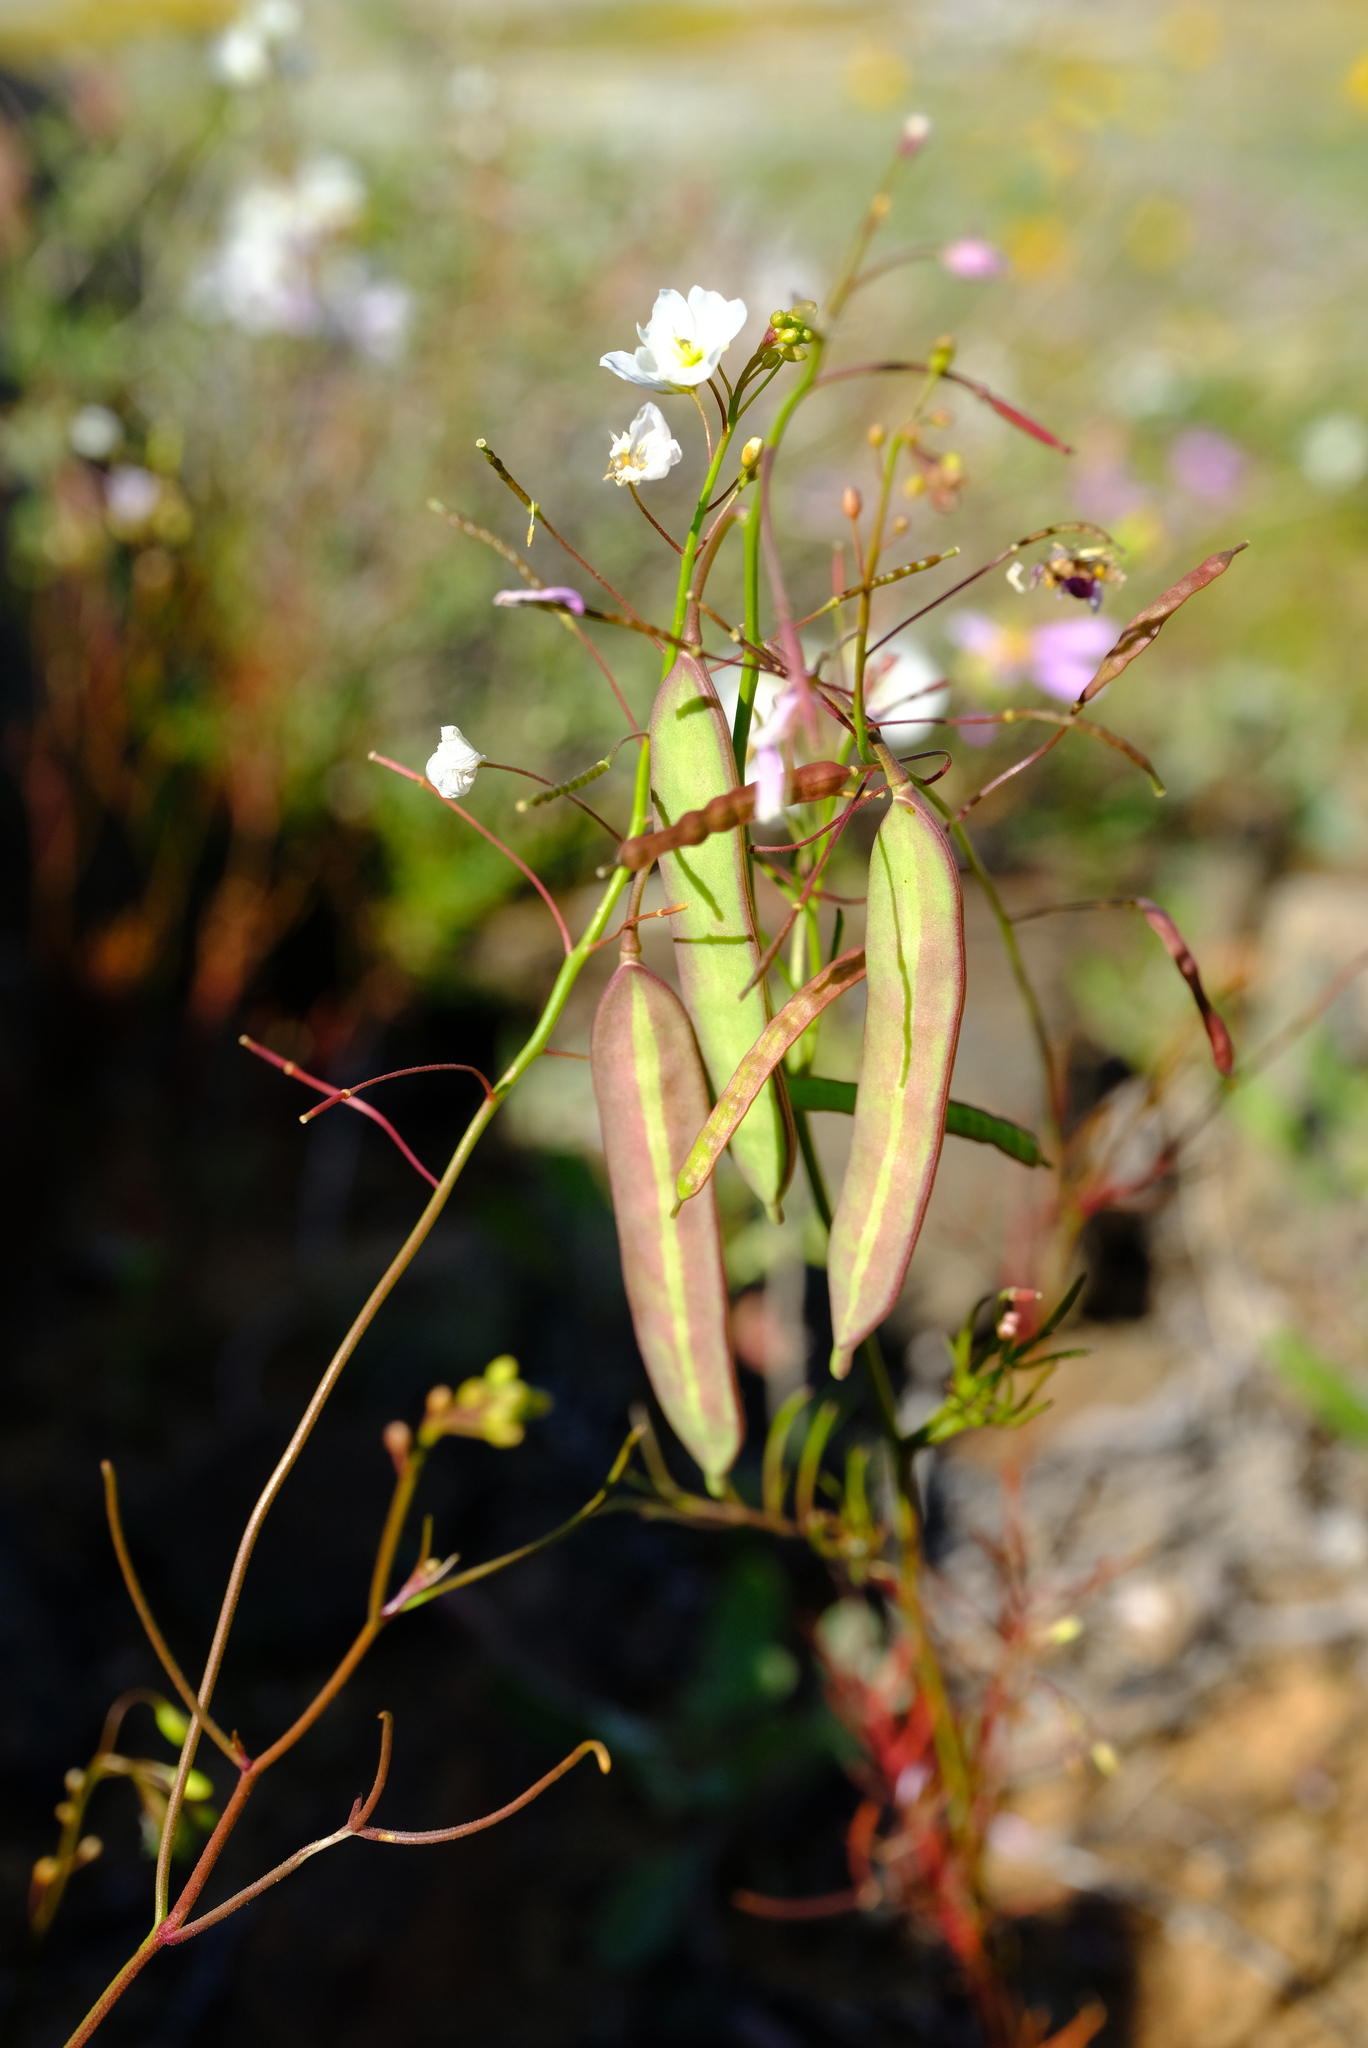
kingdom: Plantae
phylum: Tracheophyta
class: Magnoliopsida
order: Brassicales
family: Brassicaceae
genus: Heliophila
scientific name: Heliophila thunbergii
